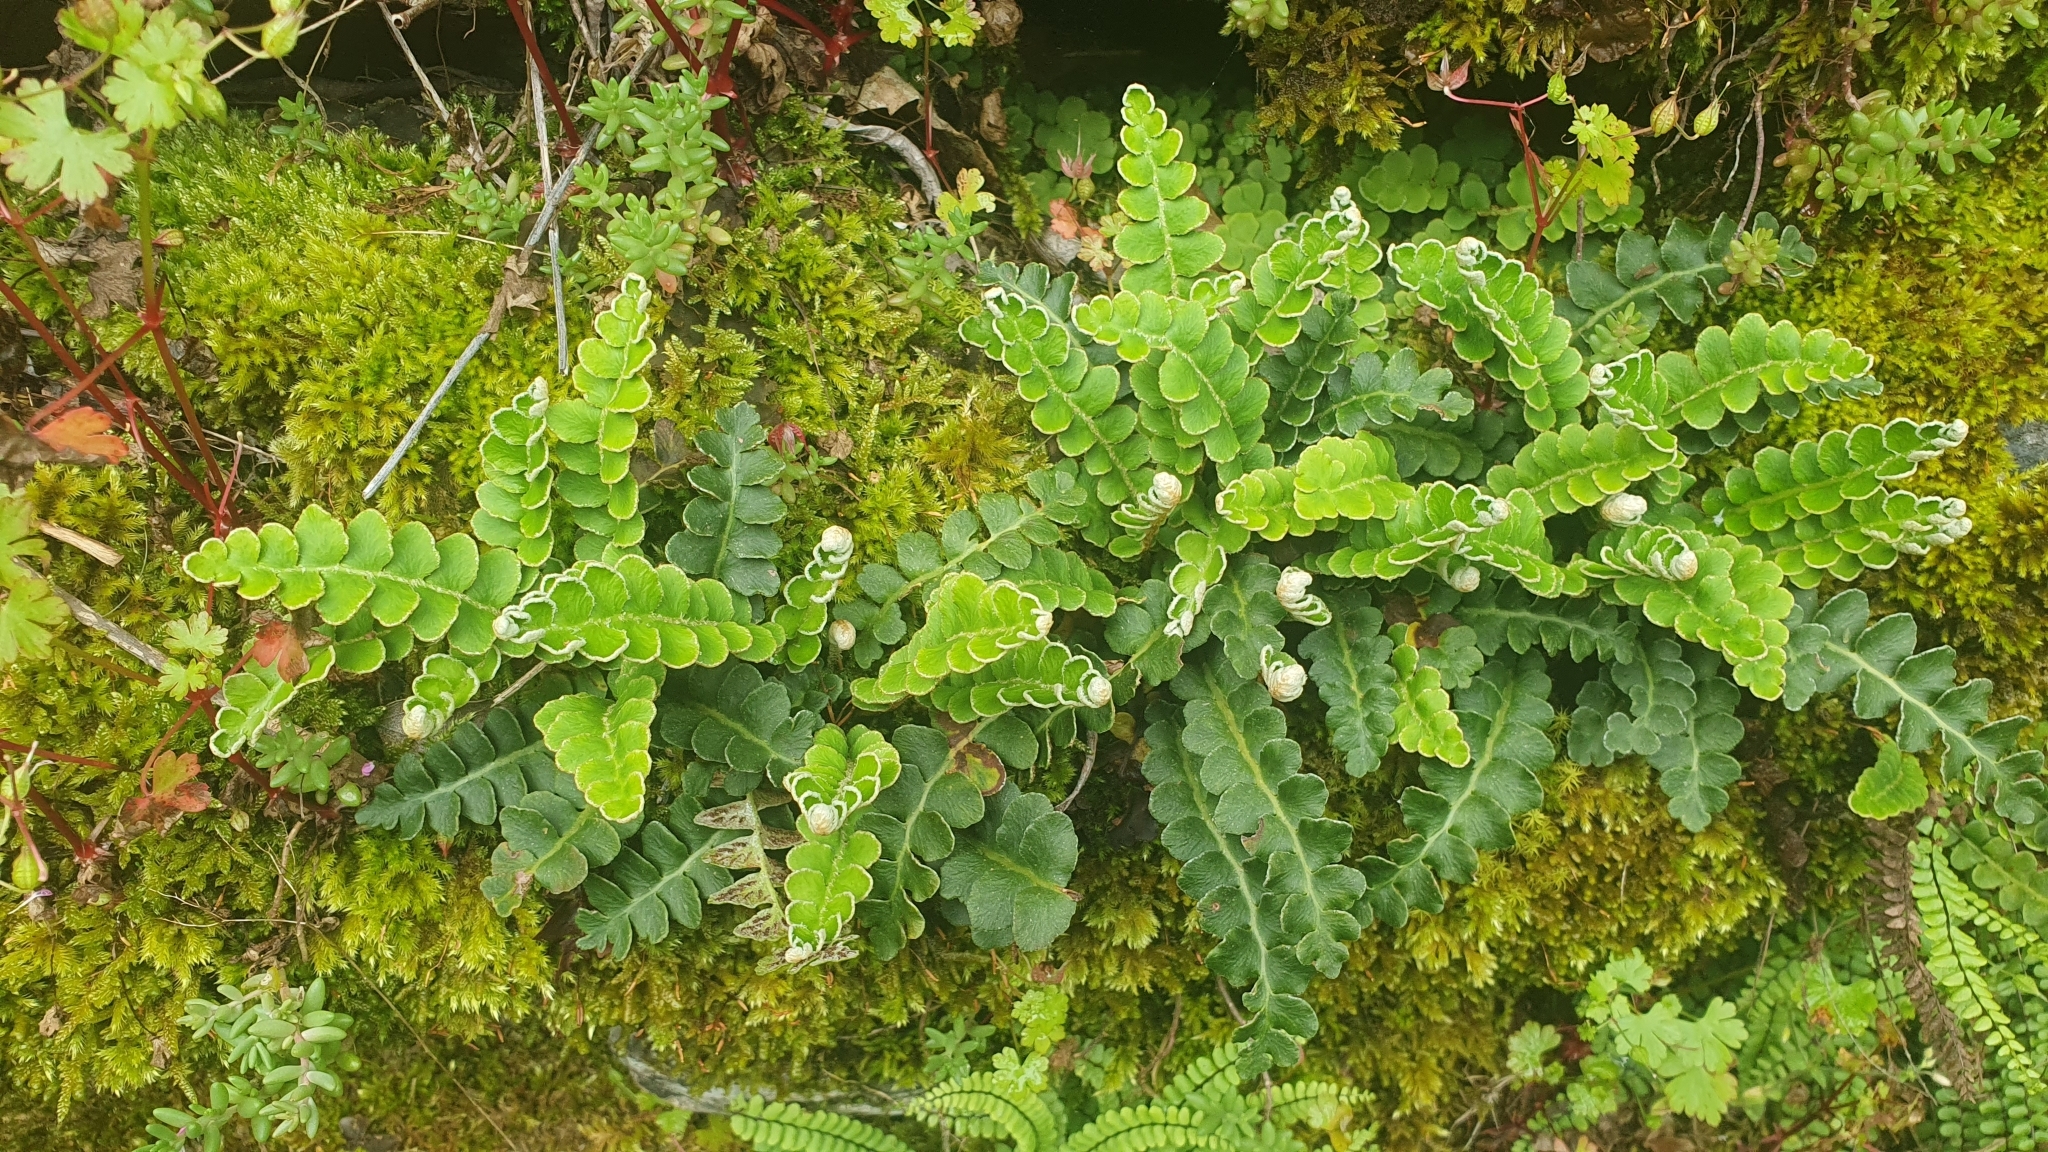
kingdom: Plantae
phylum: Tracheophyta
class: Polypodiopsida
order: Polypodiales
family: Aspleniaceae
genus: Asplenium
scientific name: Asplenium ceterach
